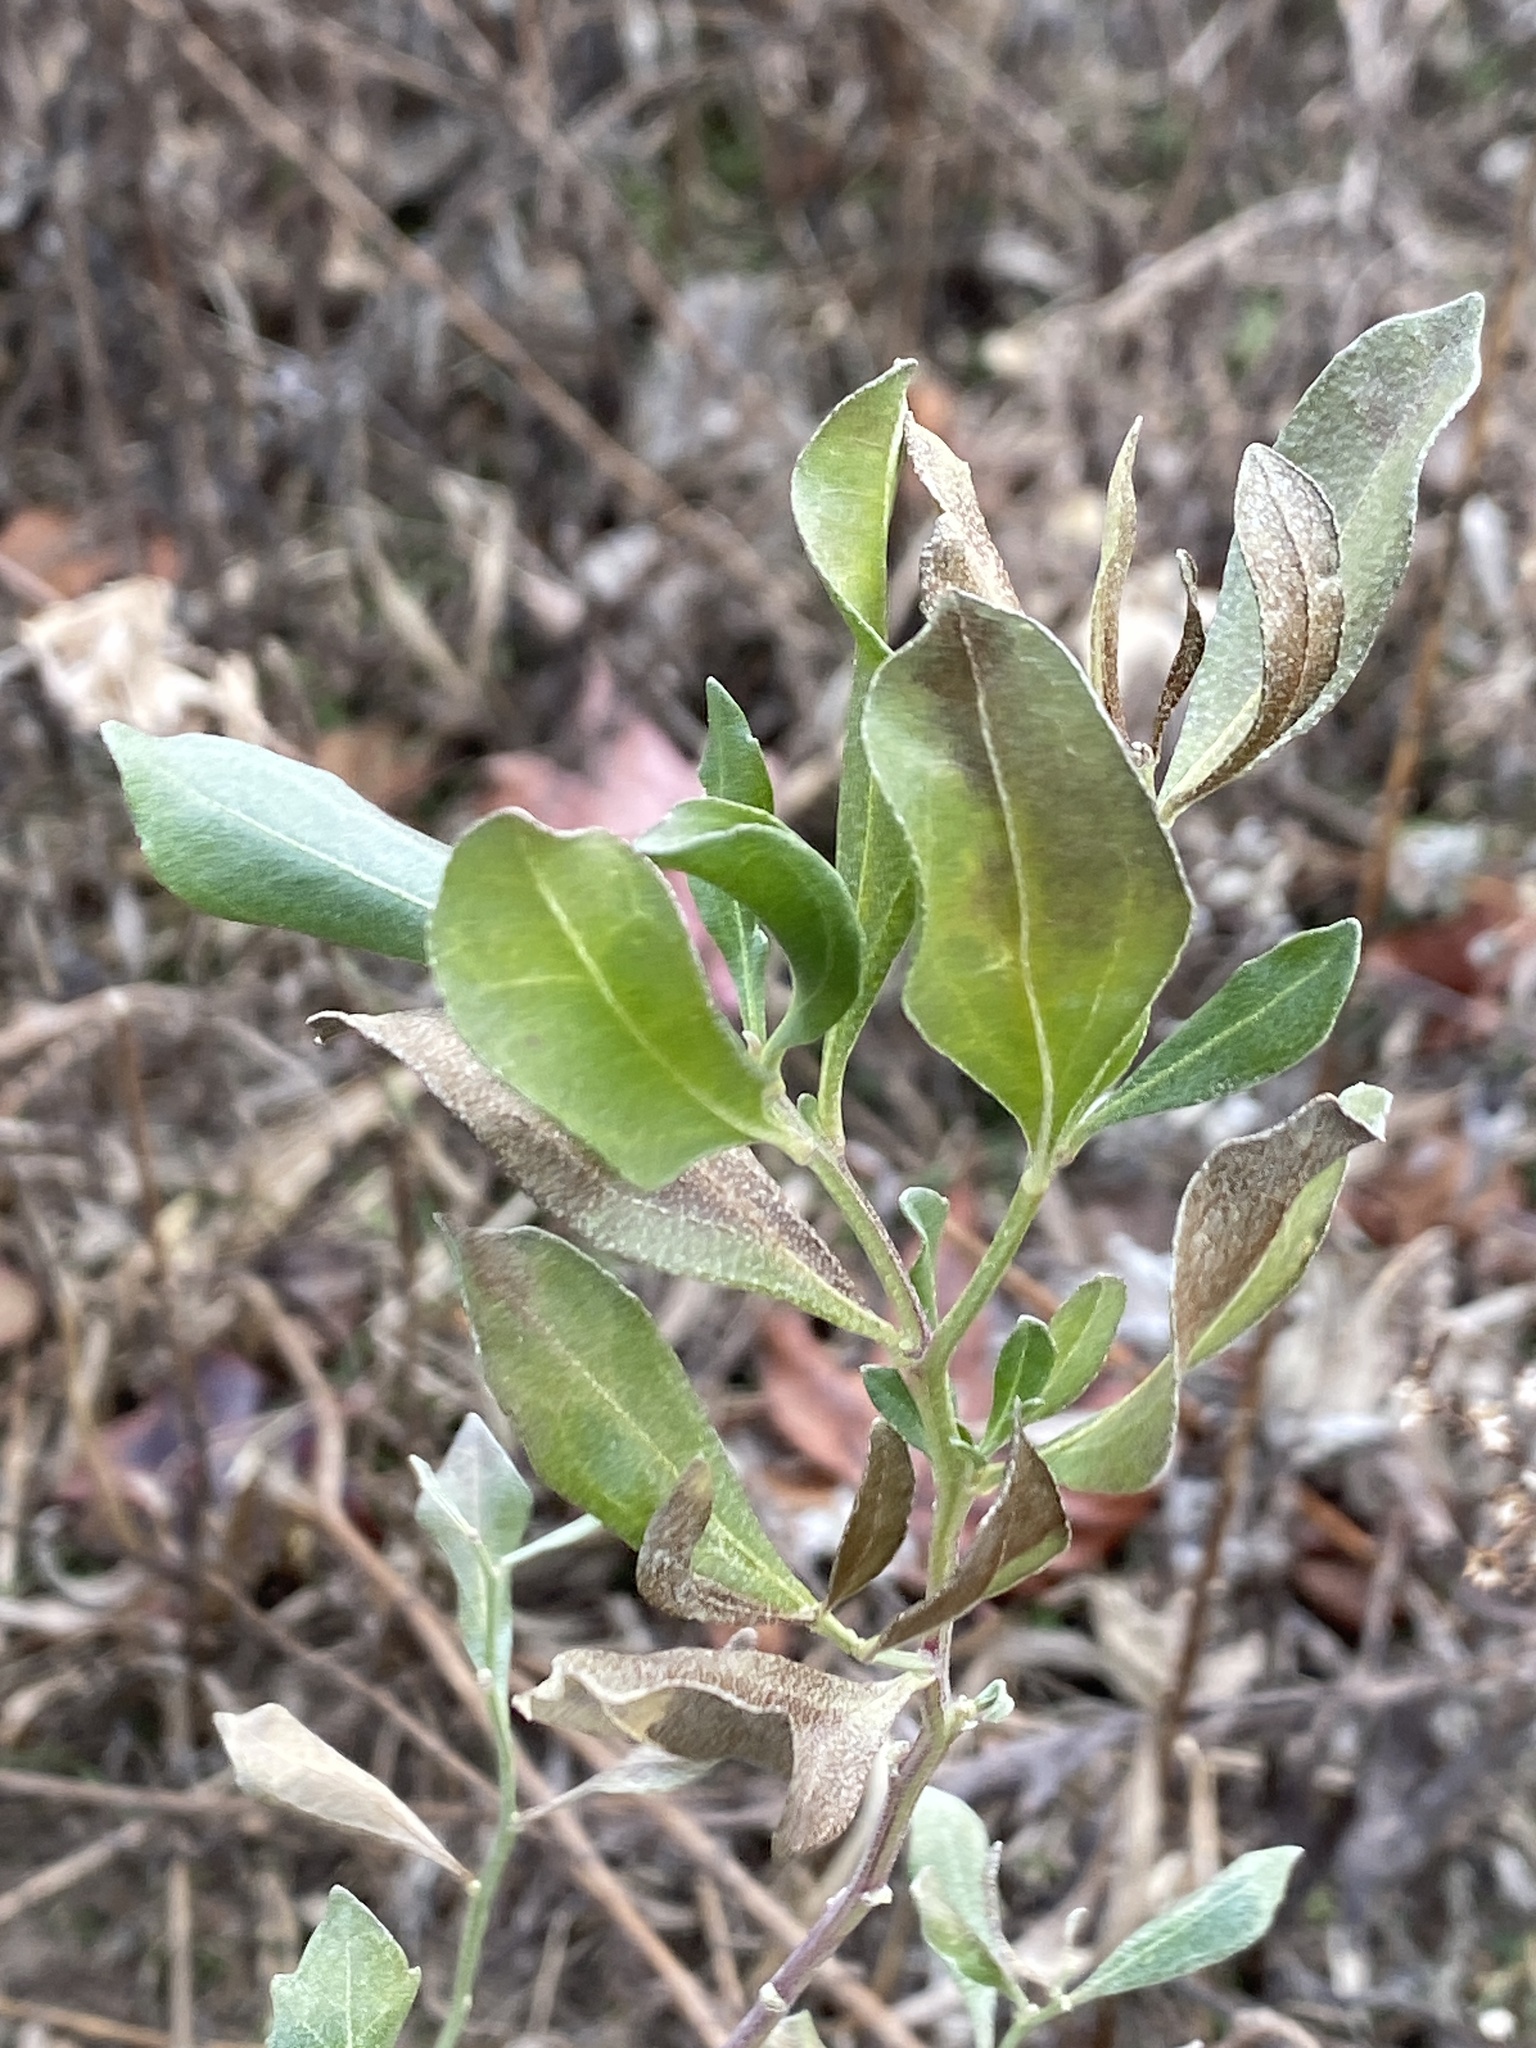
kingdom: Plantae
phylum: Tracheophyta
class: Magnoliopsida
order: Asterales
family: Asteraceae
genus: Baccharis
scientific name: Baccharis halimifolia
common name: Eastern baccharis
